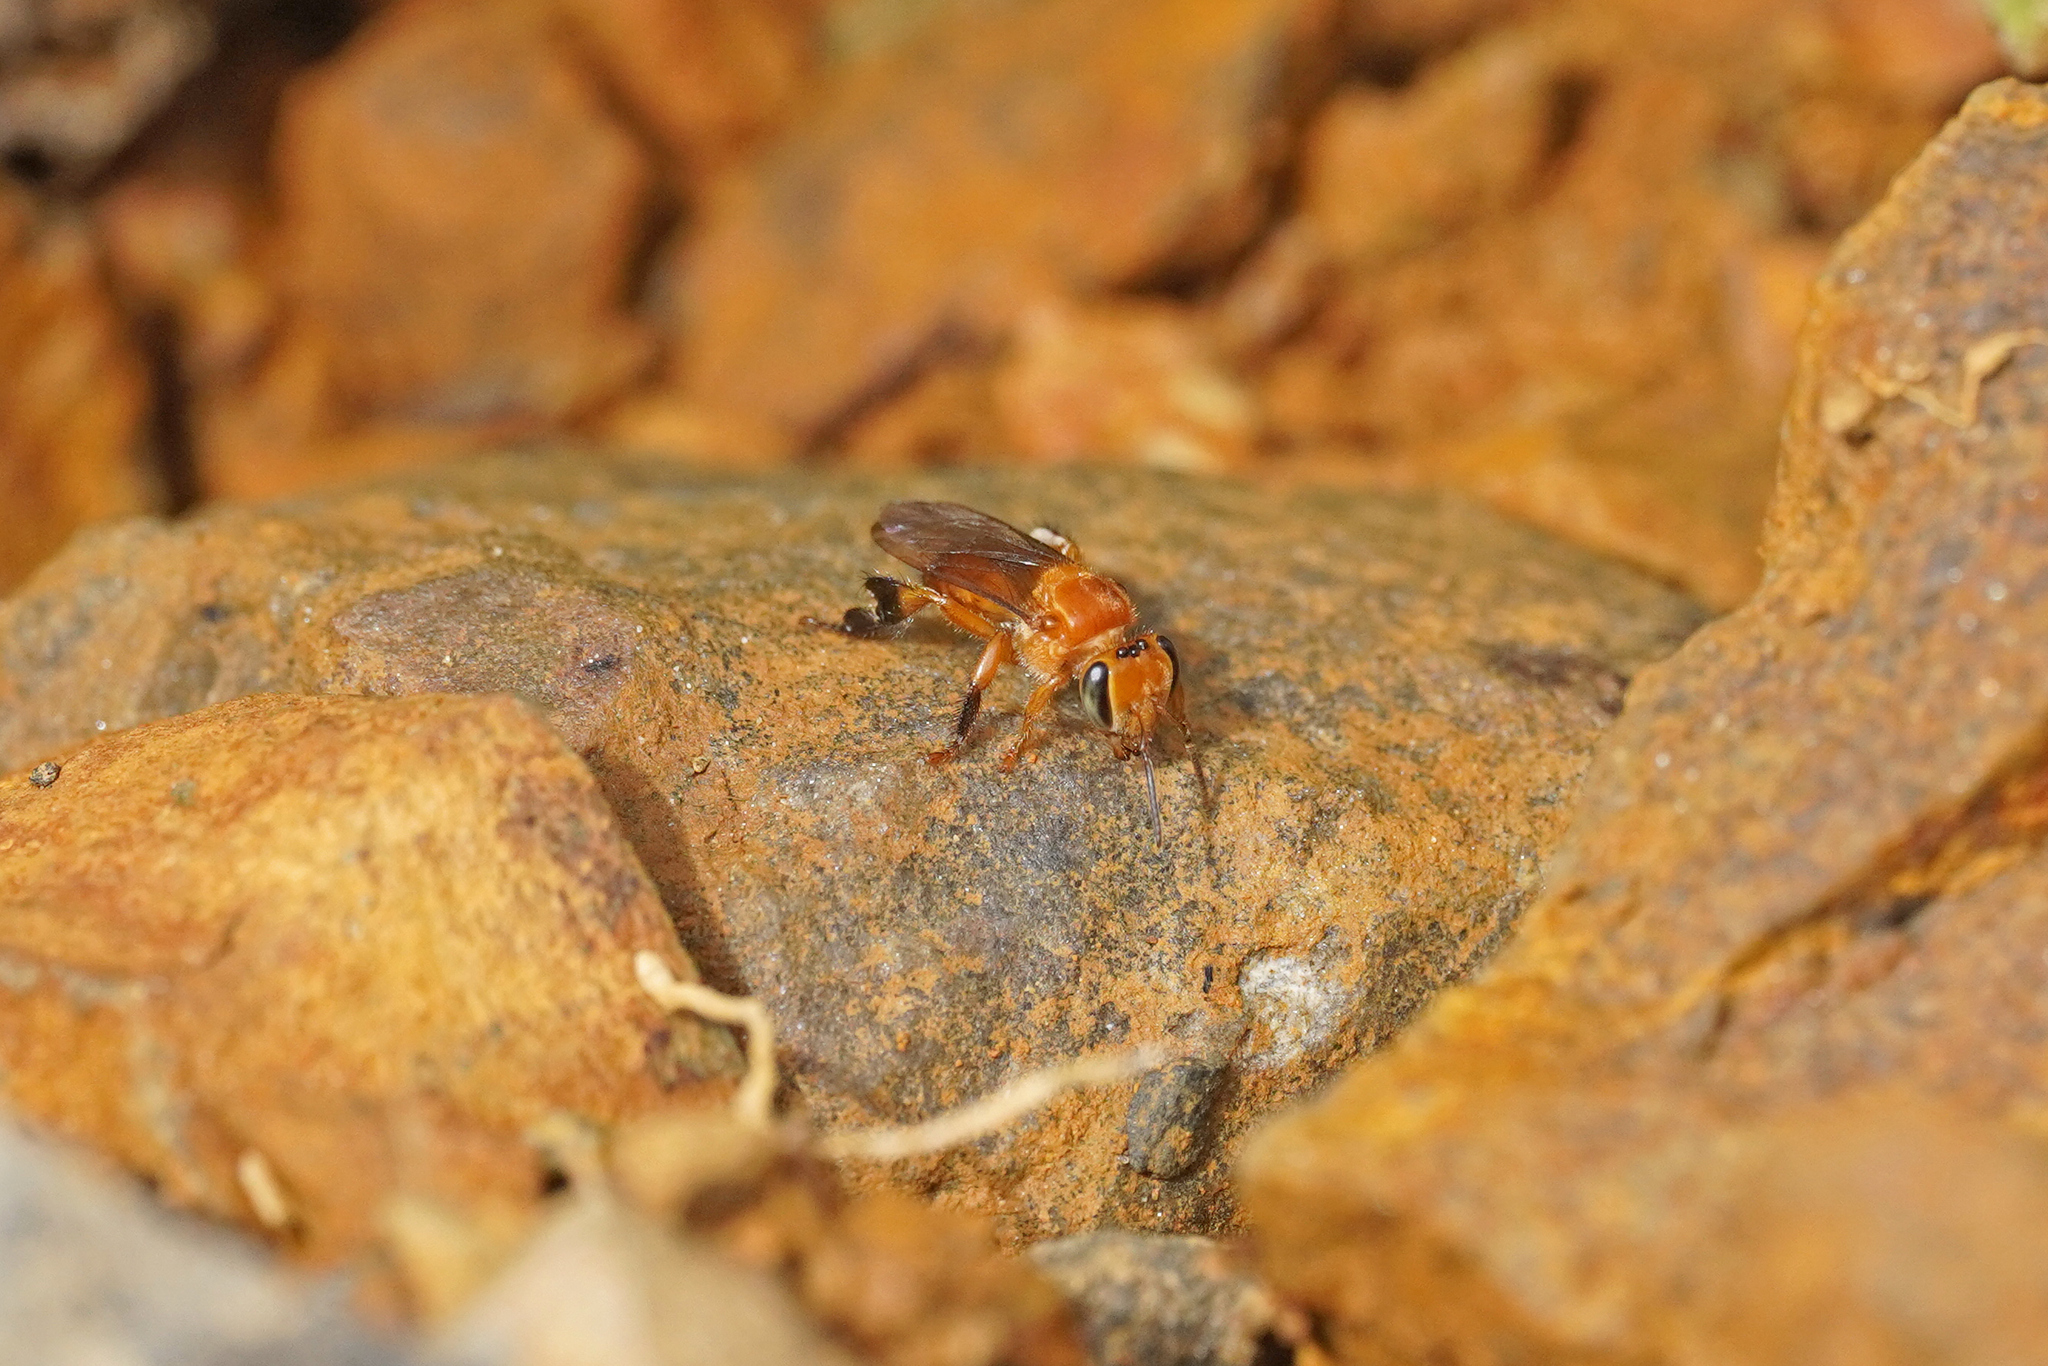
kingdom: Animalia
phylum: Arthropoda
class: Insecta
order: Hymenoptera
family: Apidae
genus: Partamona
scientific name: Partamona testacea
